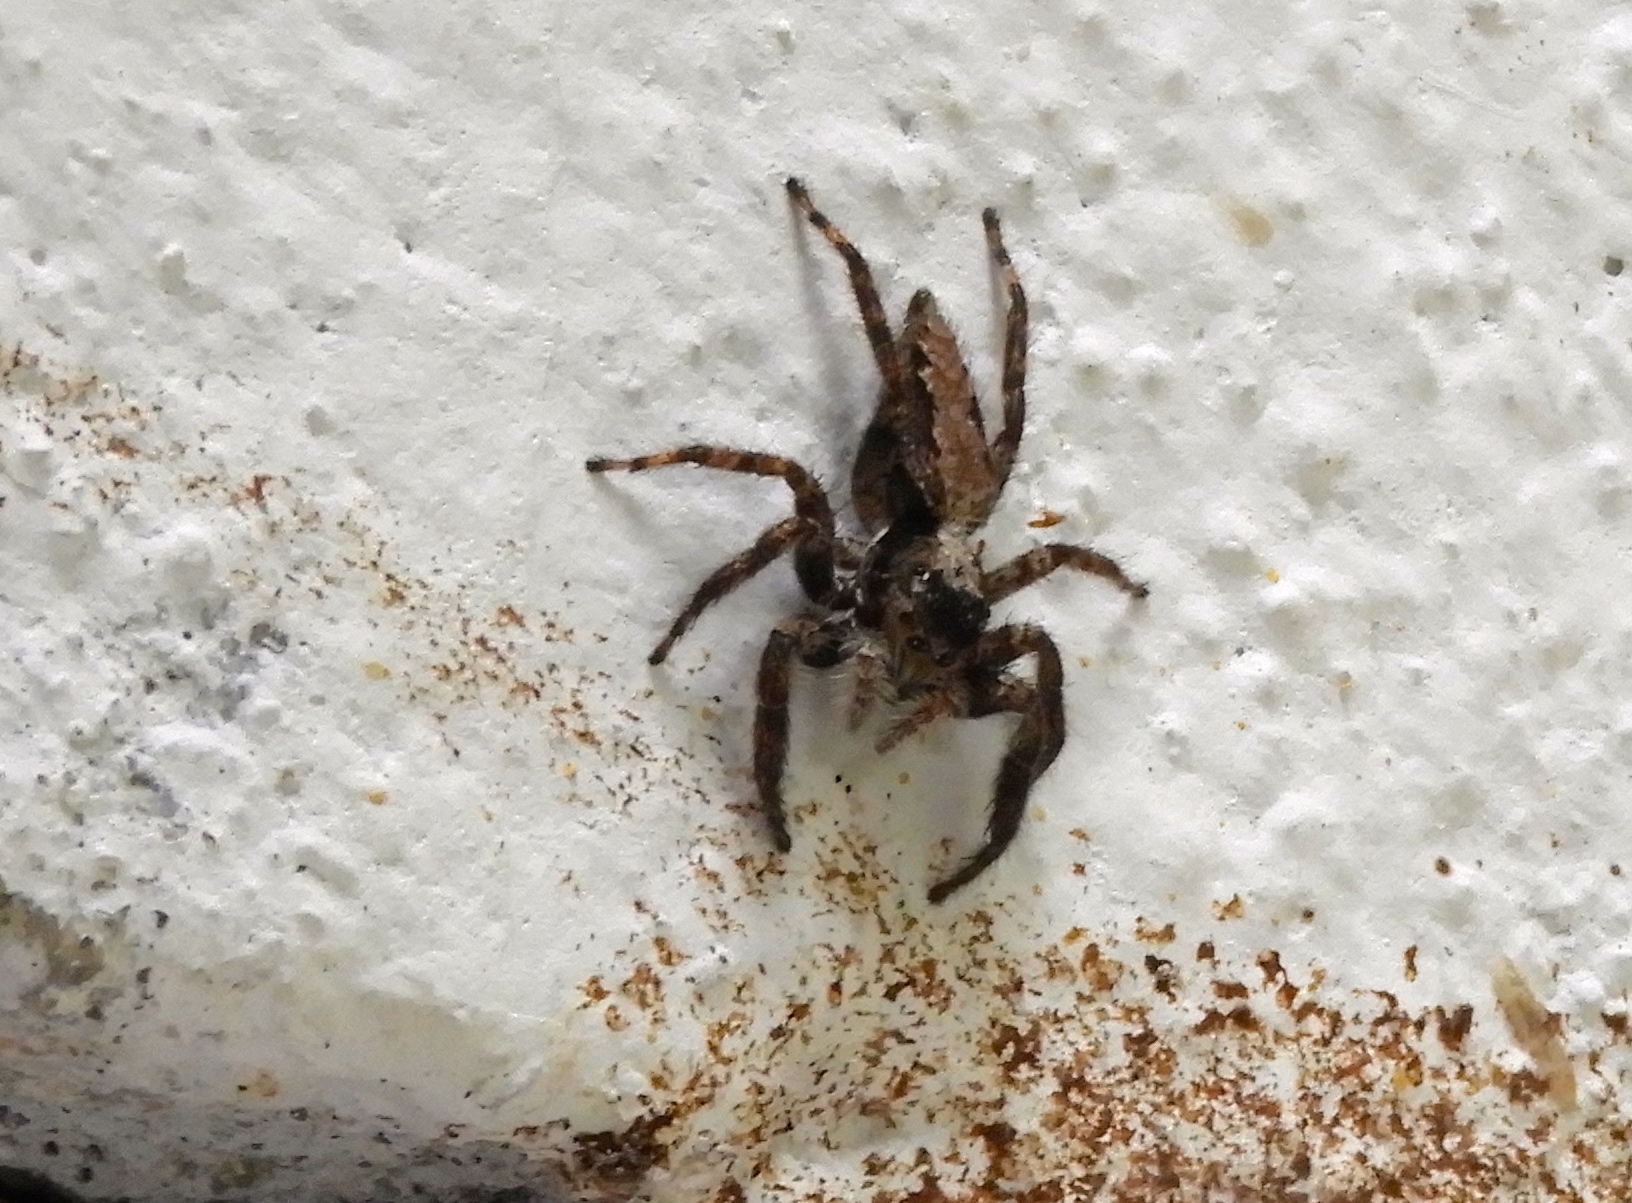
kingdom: Animalia
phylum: Arthropoda
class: Arachnida
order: Araneae
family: Salticidae
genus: Balmaceda
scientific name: Balmaceda
